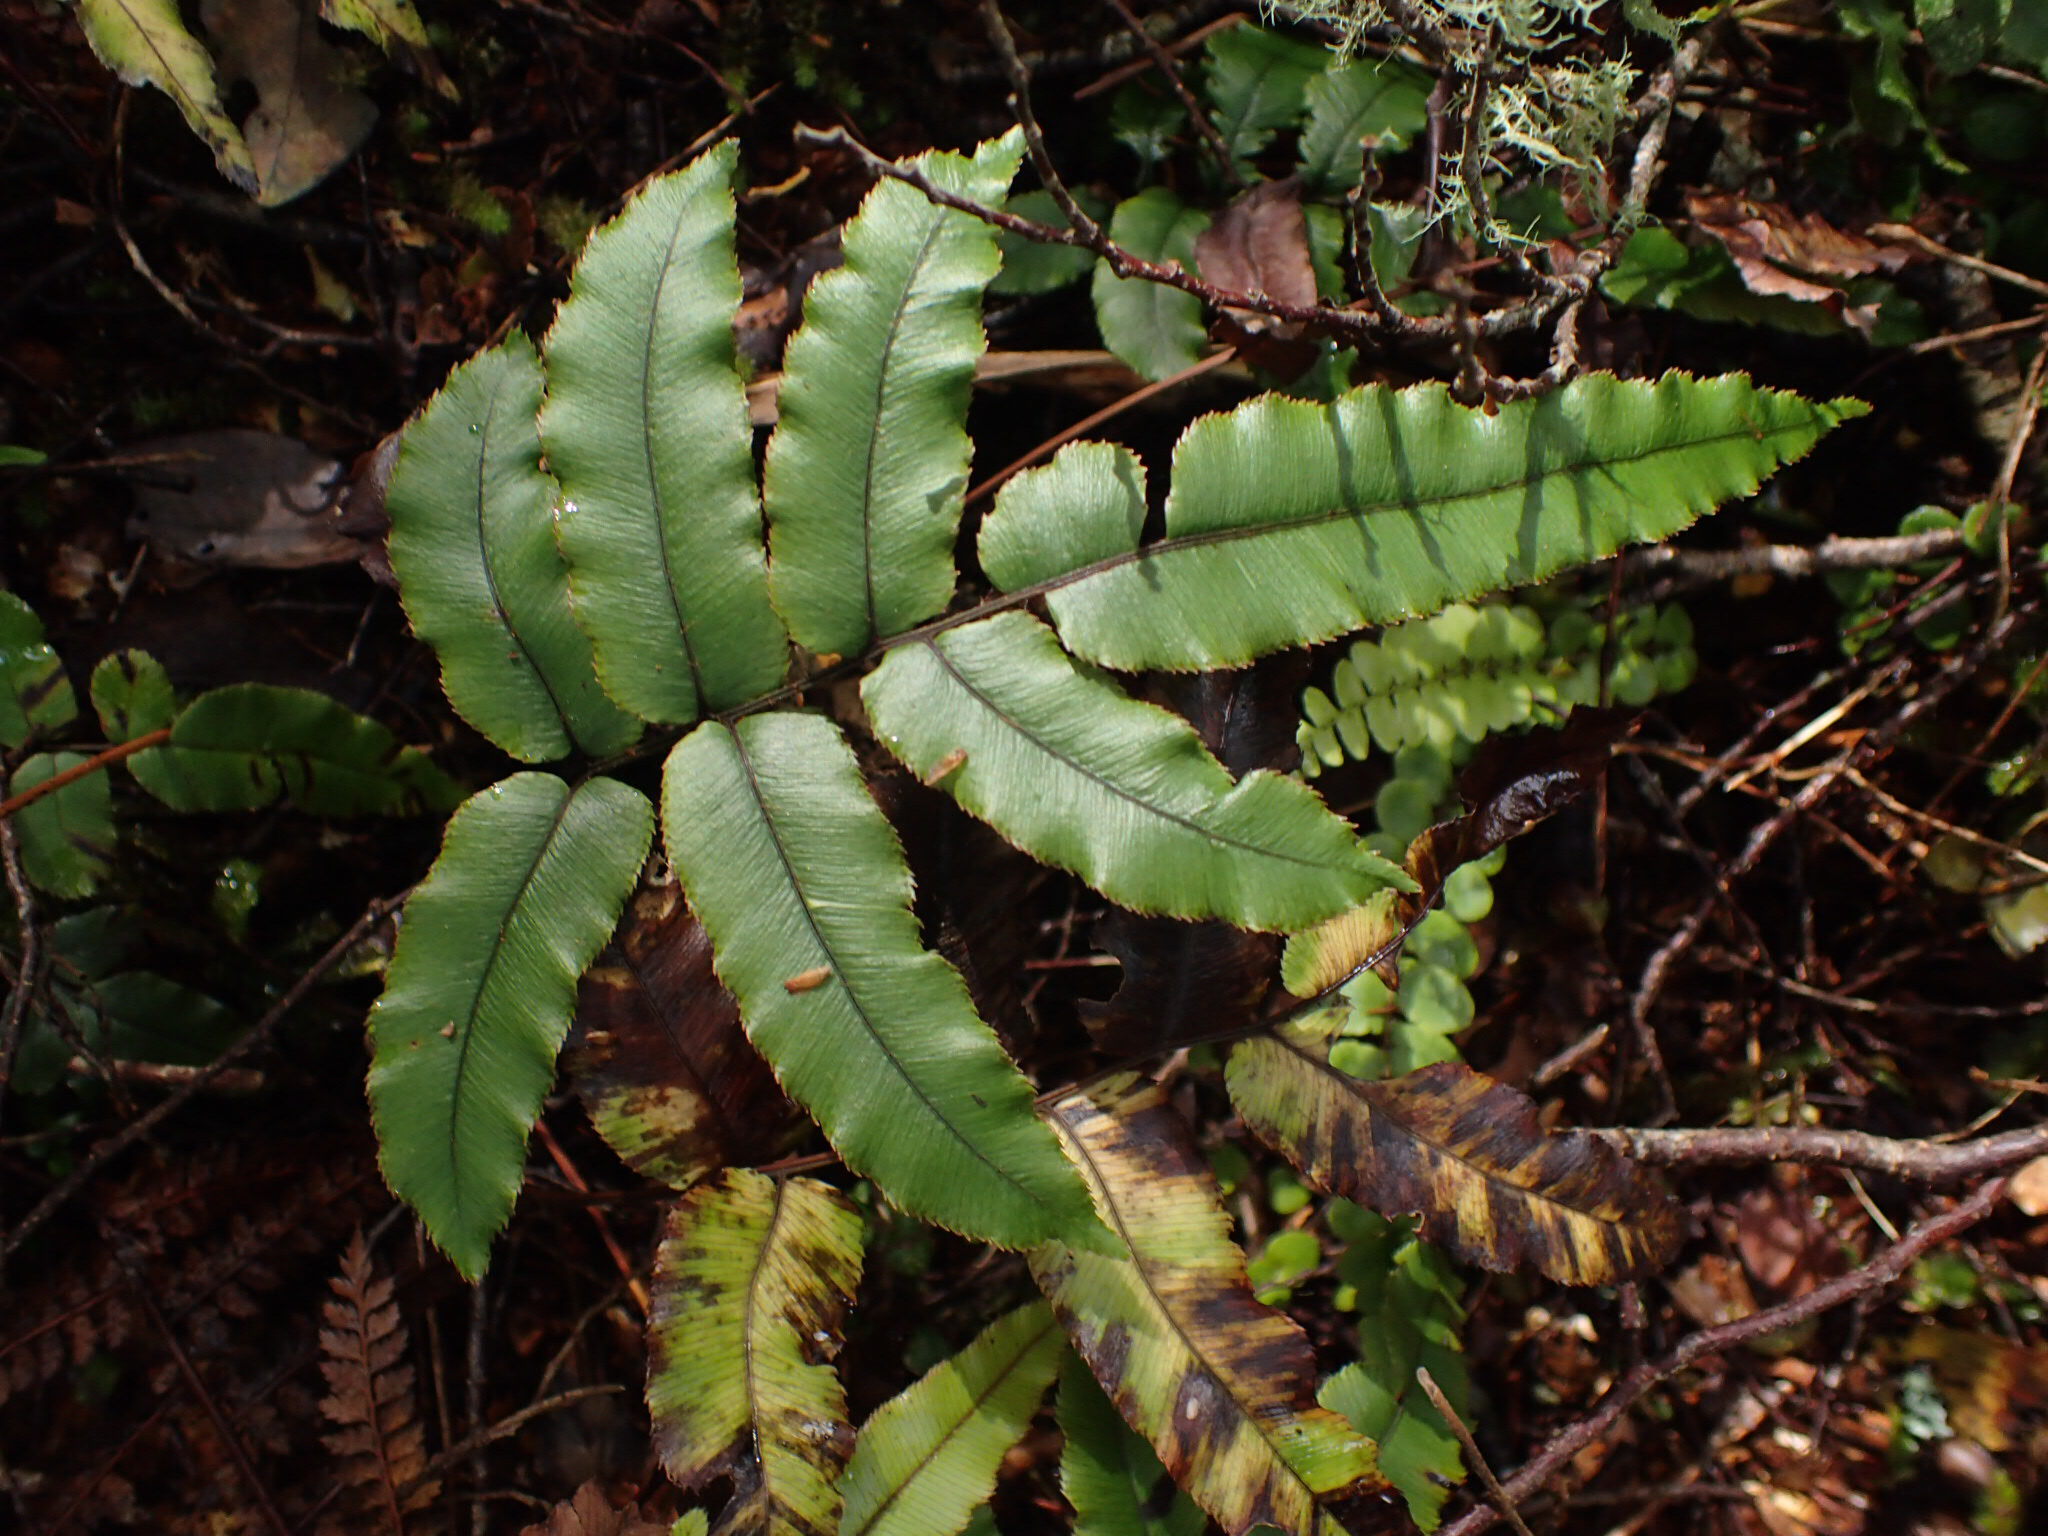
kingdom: Plantae
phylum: Tracheophyta
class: Polypodiopsida
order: Polypodiales
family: Blechnaceae
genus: Parablechnum
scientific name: Parablechnum procerum
